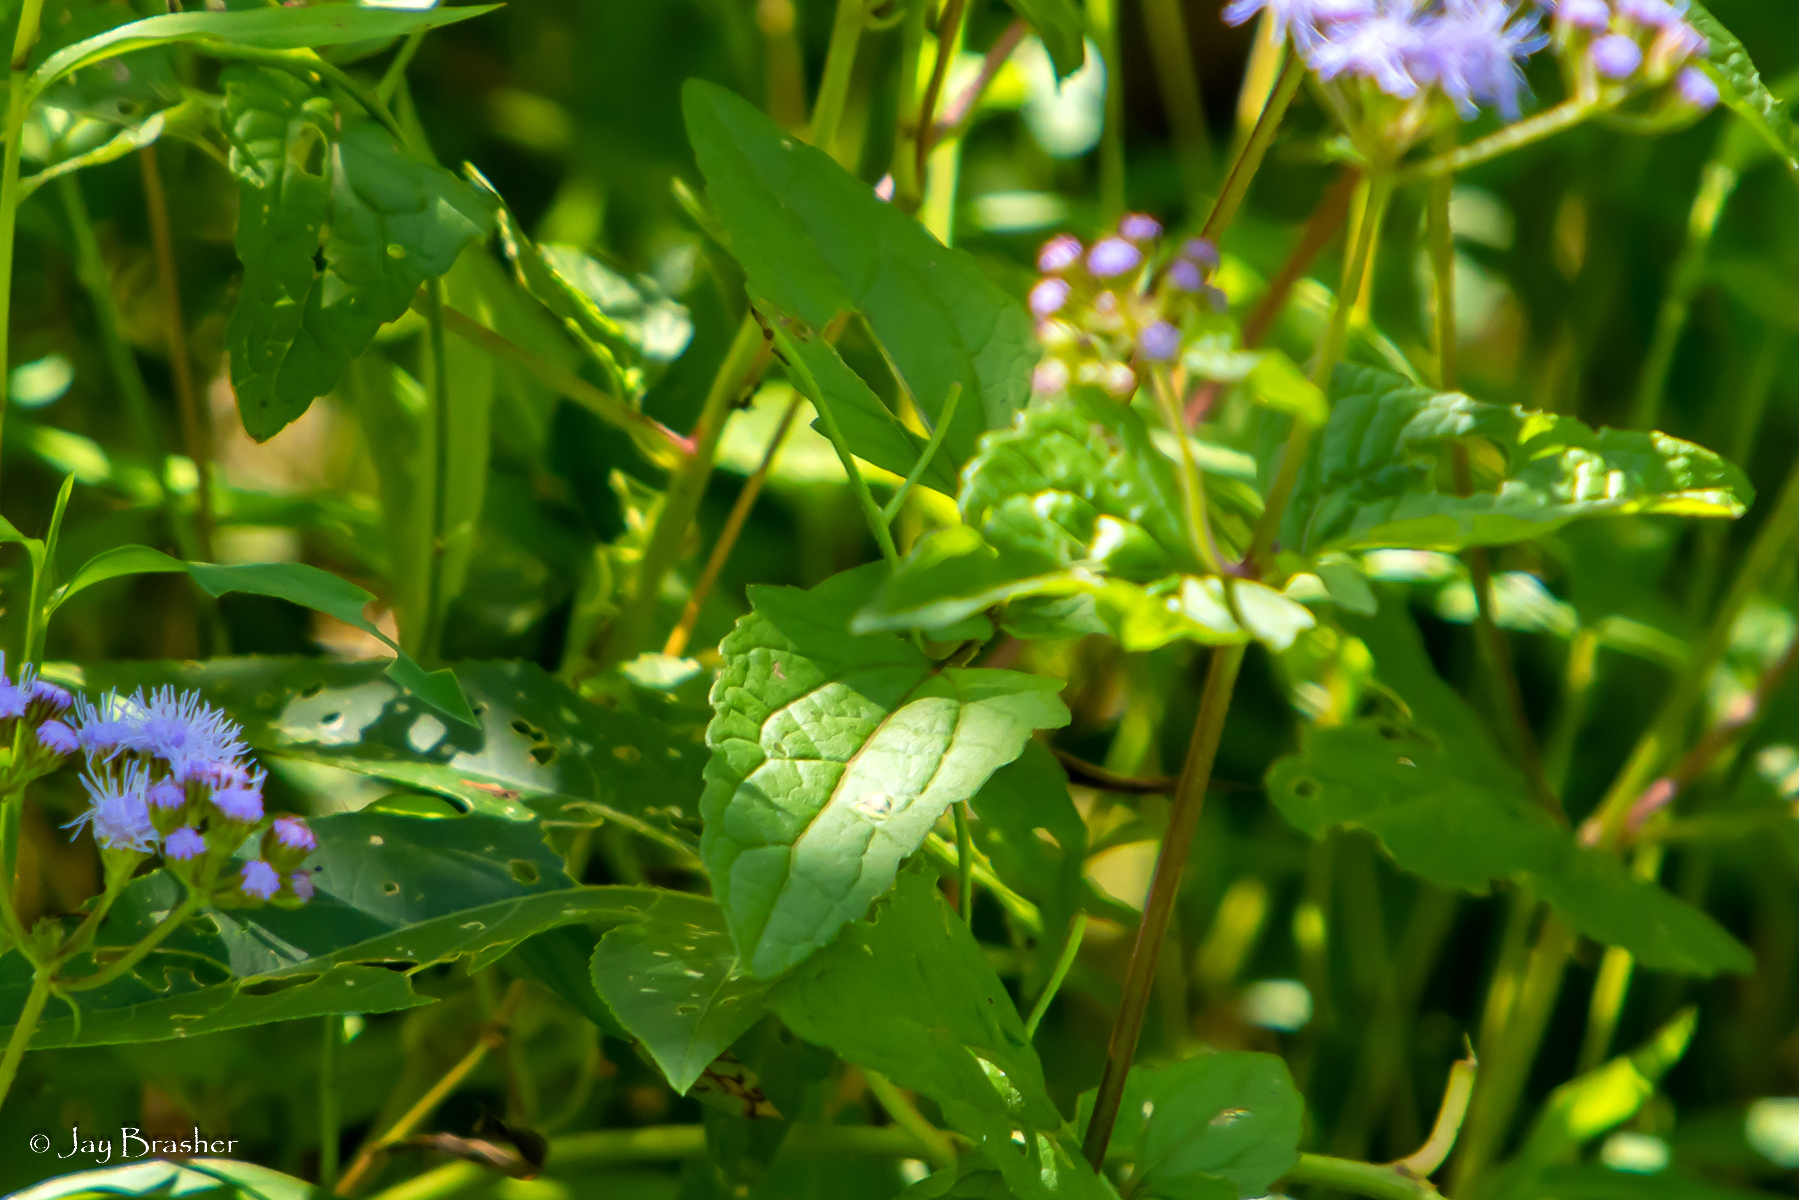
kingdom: Plantae
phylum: Tracheophyta
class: Magnoliopsida
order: Asterales
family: Asteraceae
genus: Conoclinium
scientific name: Conoclinium coelestinum
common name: Blue mistflower
